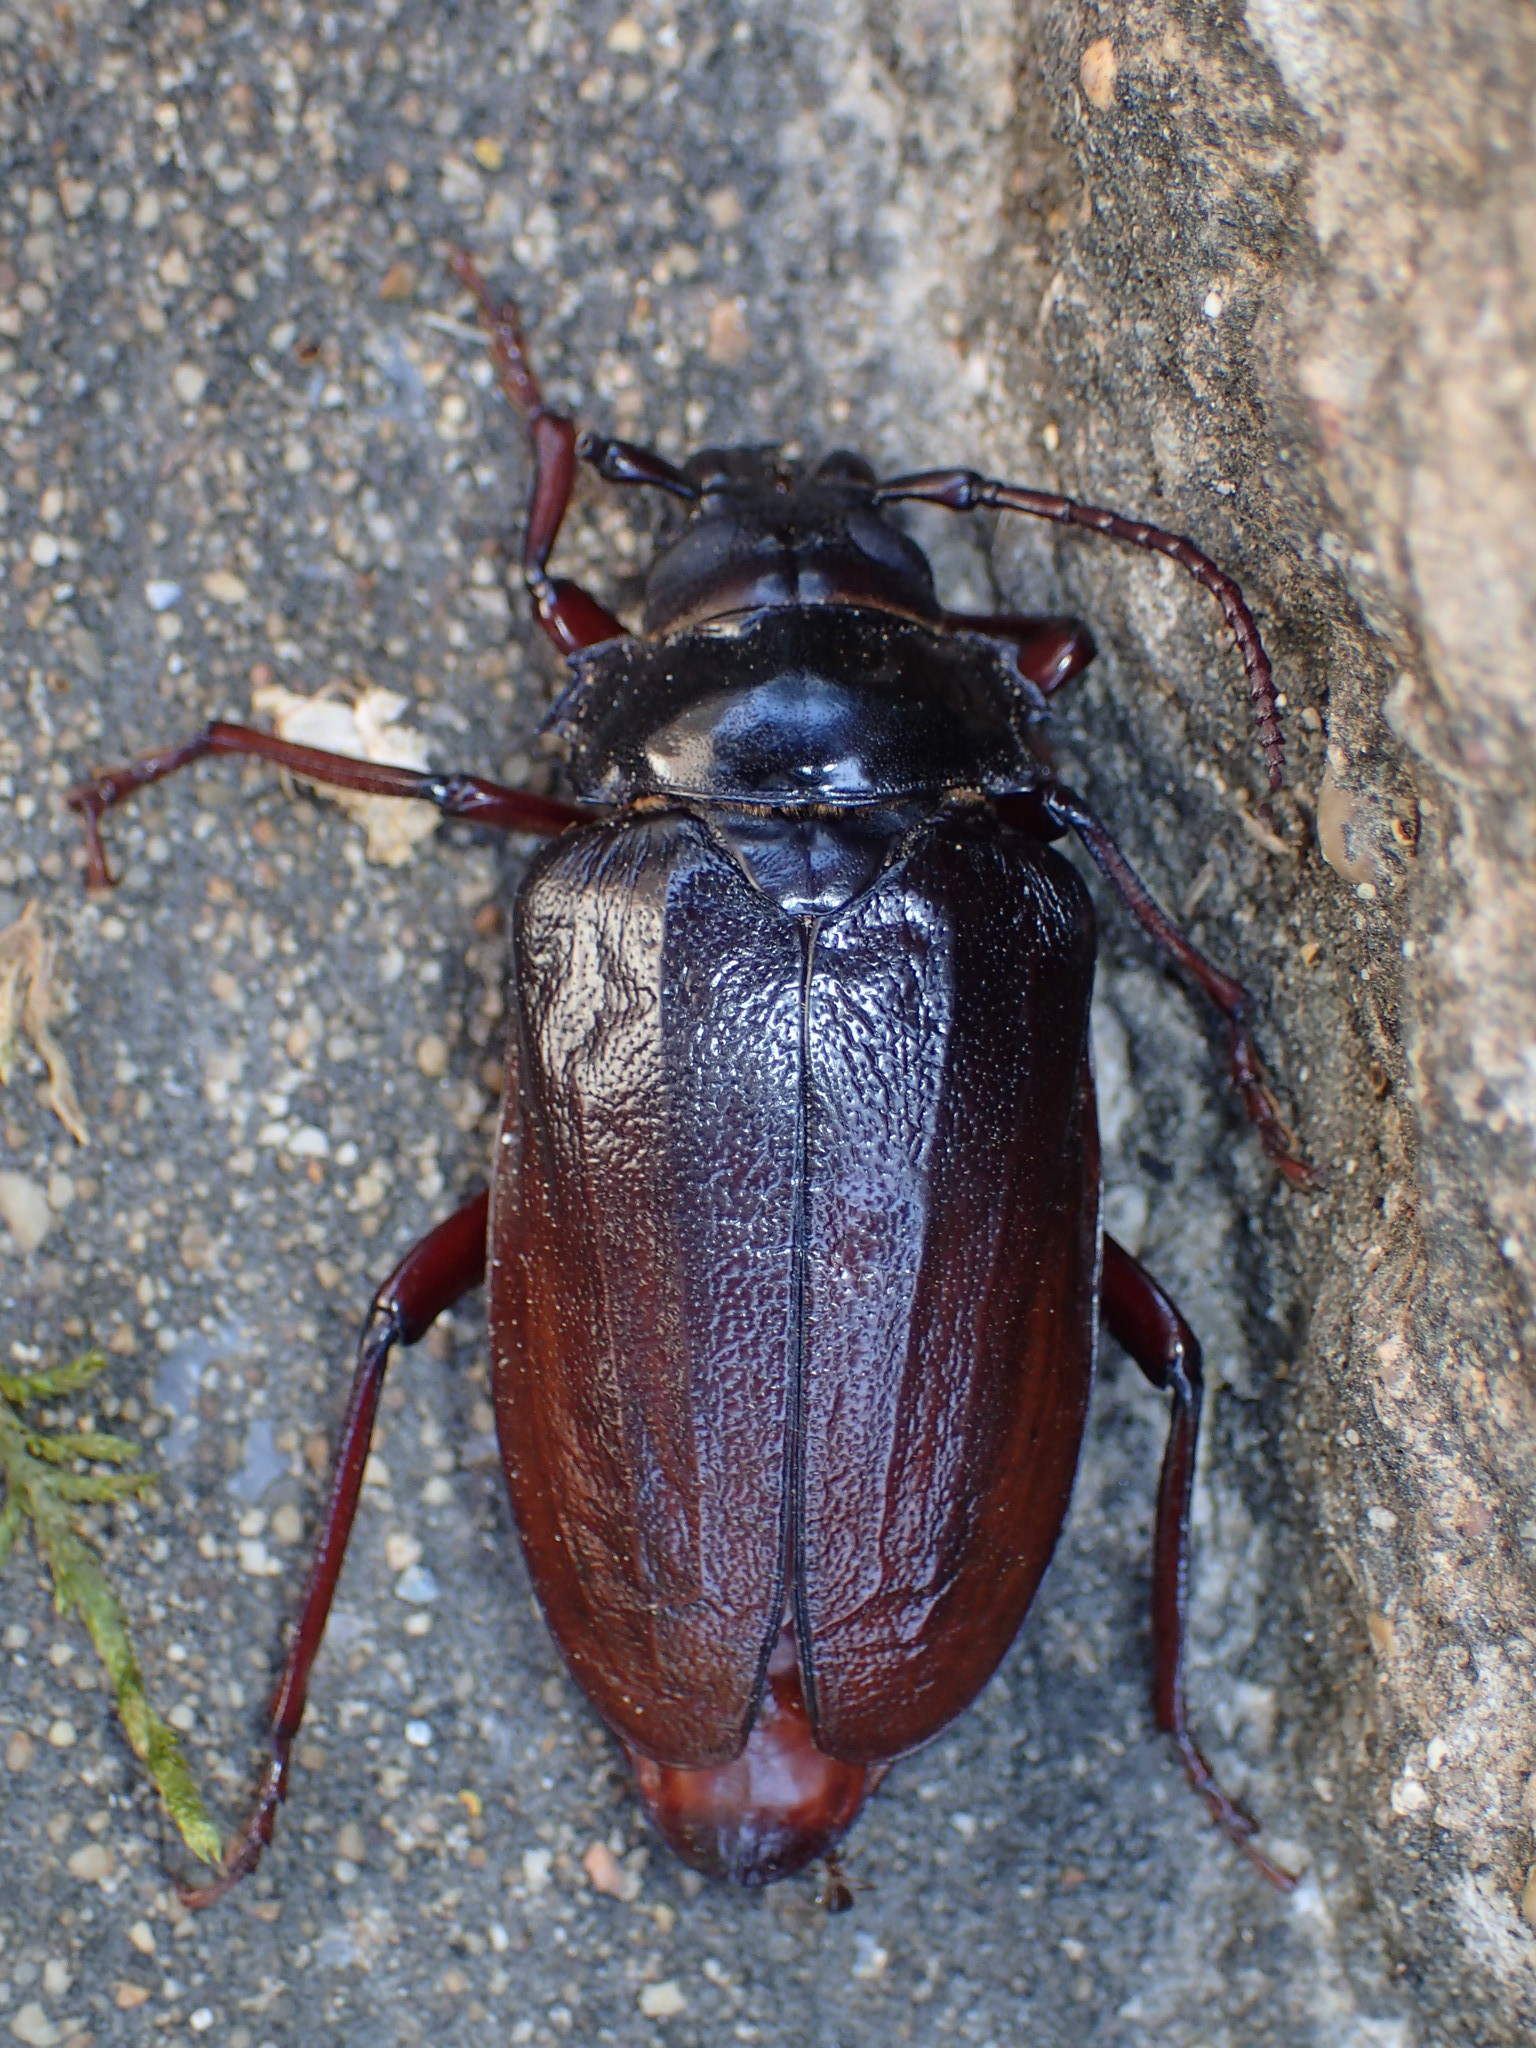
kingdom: Animalia
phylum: Arthropoda
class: Insecta
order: Coleoptera
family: Cerambycidae
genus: Prionus
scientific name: Prionus imbricornis
